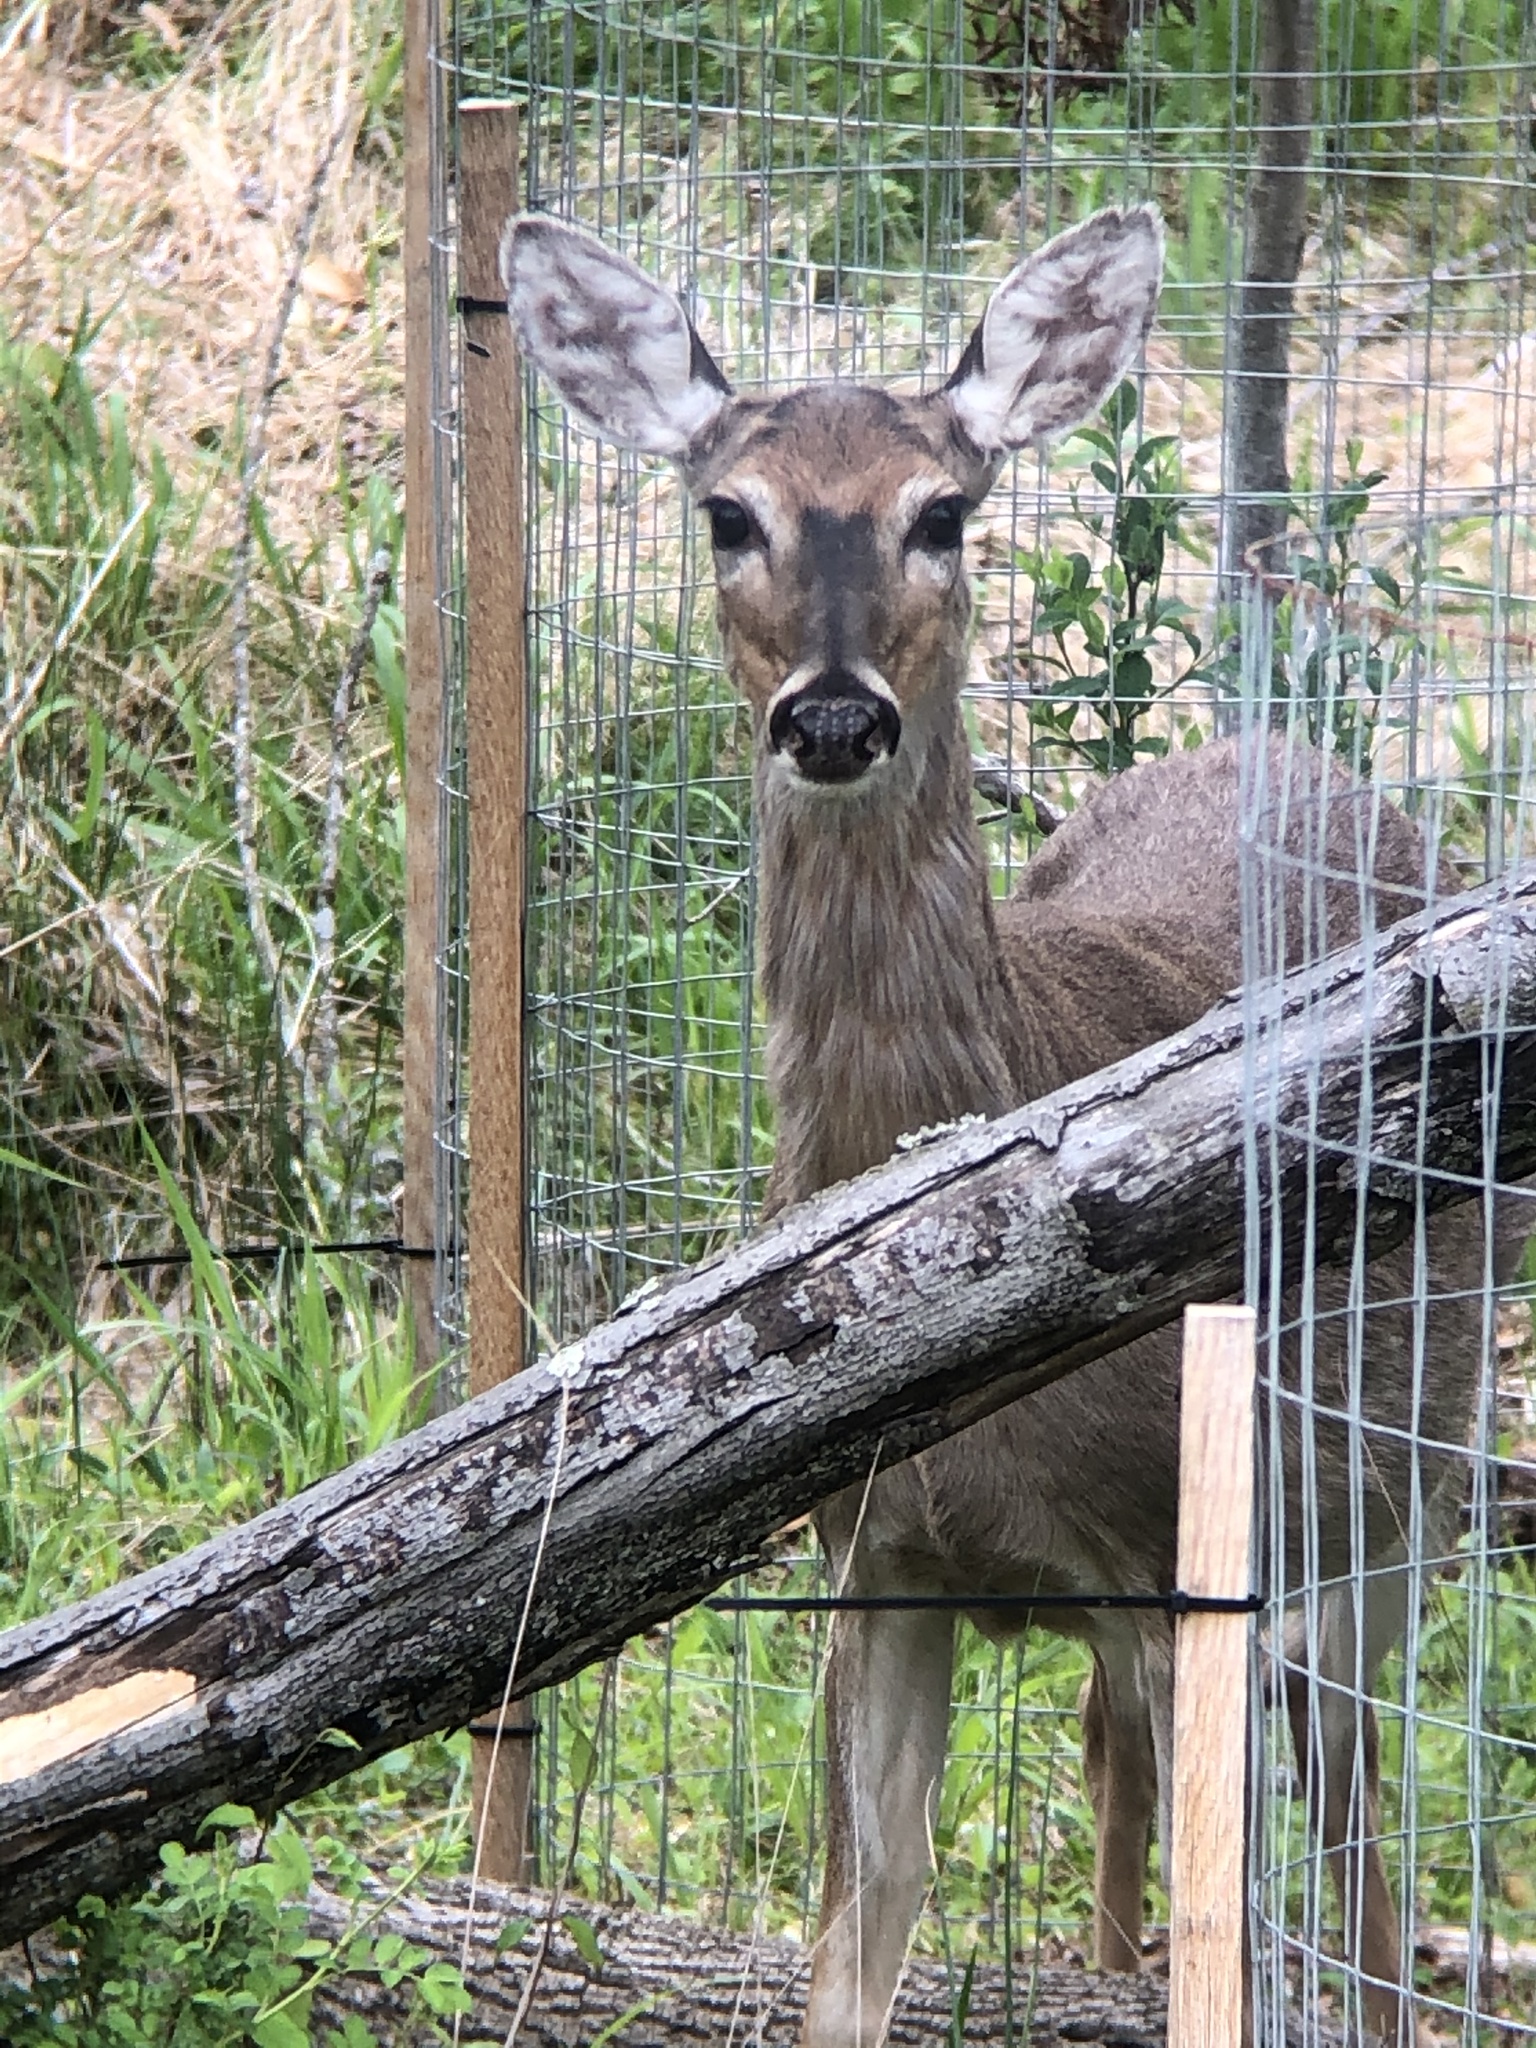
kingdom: Animalia
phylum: Chordata
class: Mammalia
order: Artiodactyla
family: Cervidae
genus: Odocoileus
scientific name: Odocoileus virginianus
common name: White-tailed deer
